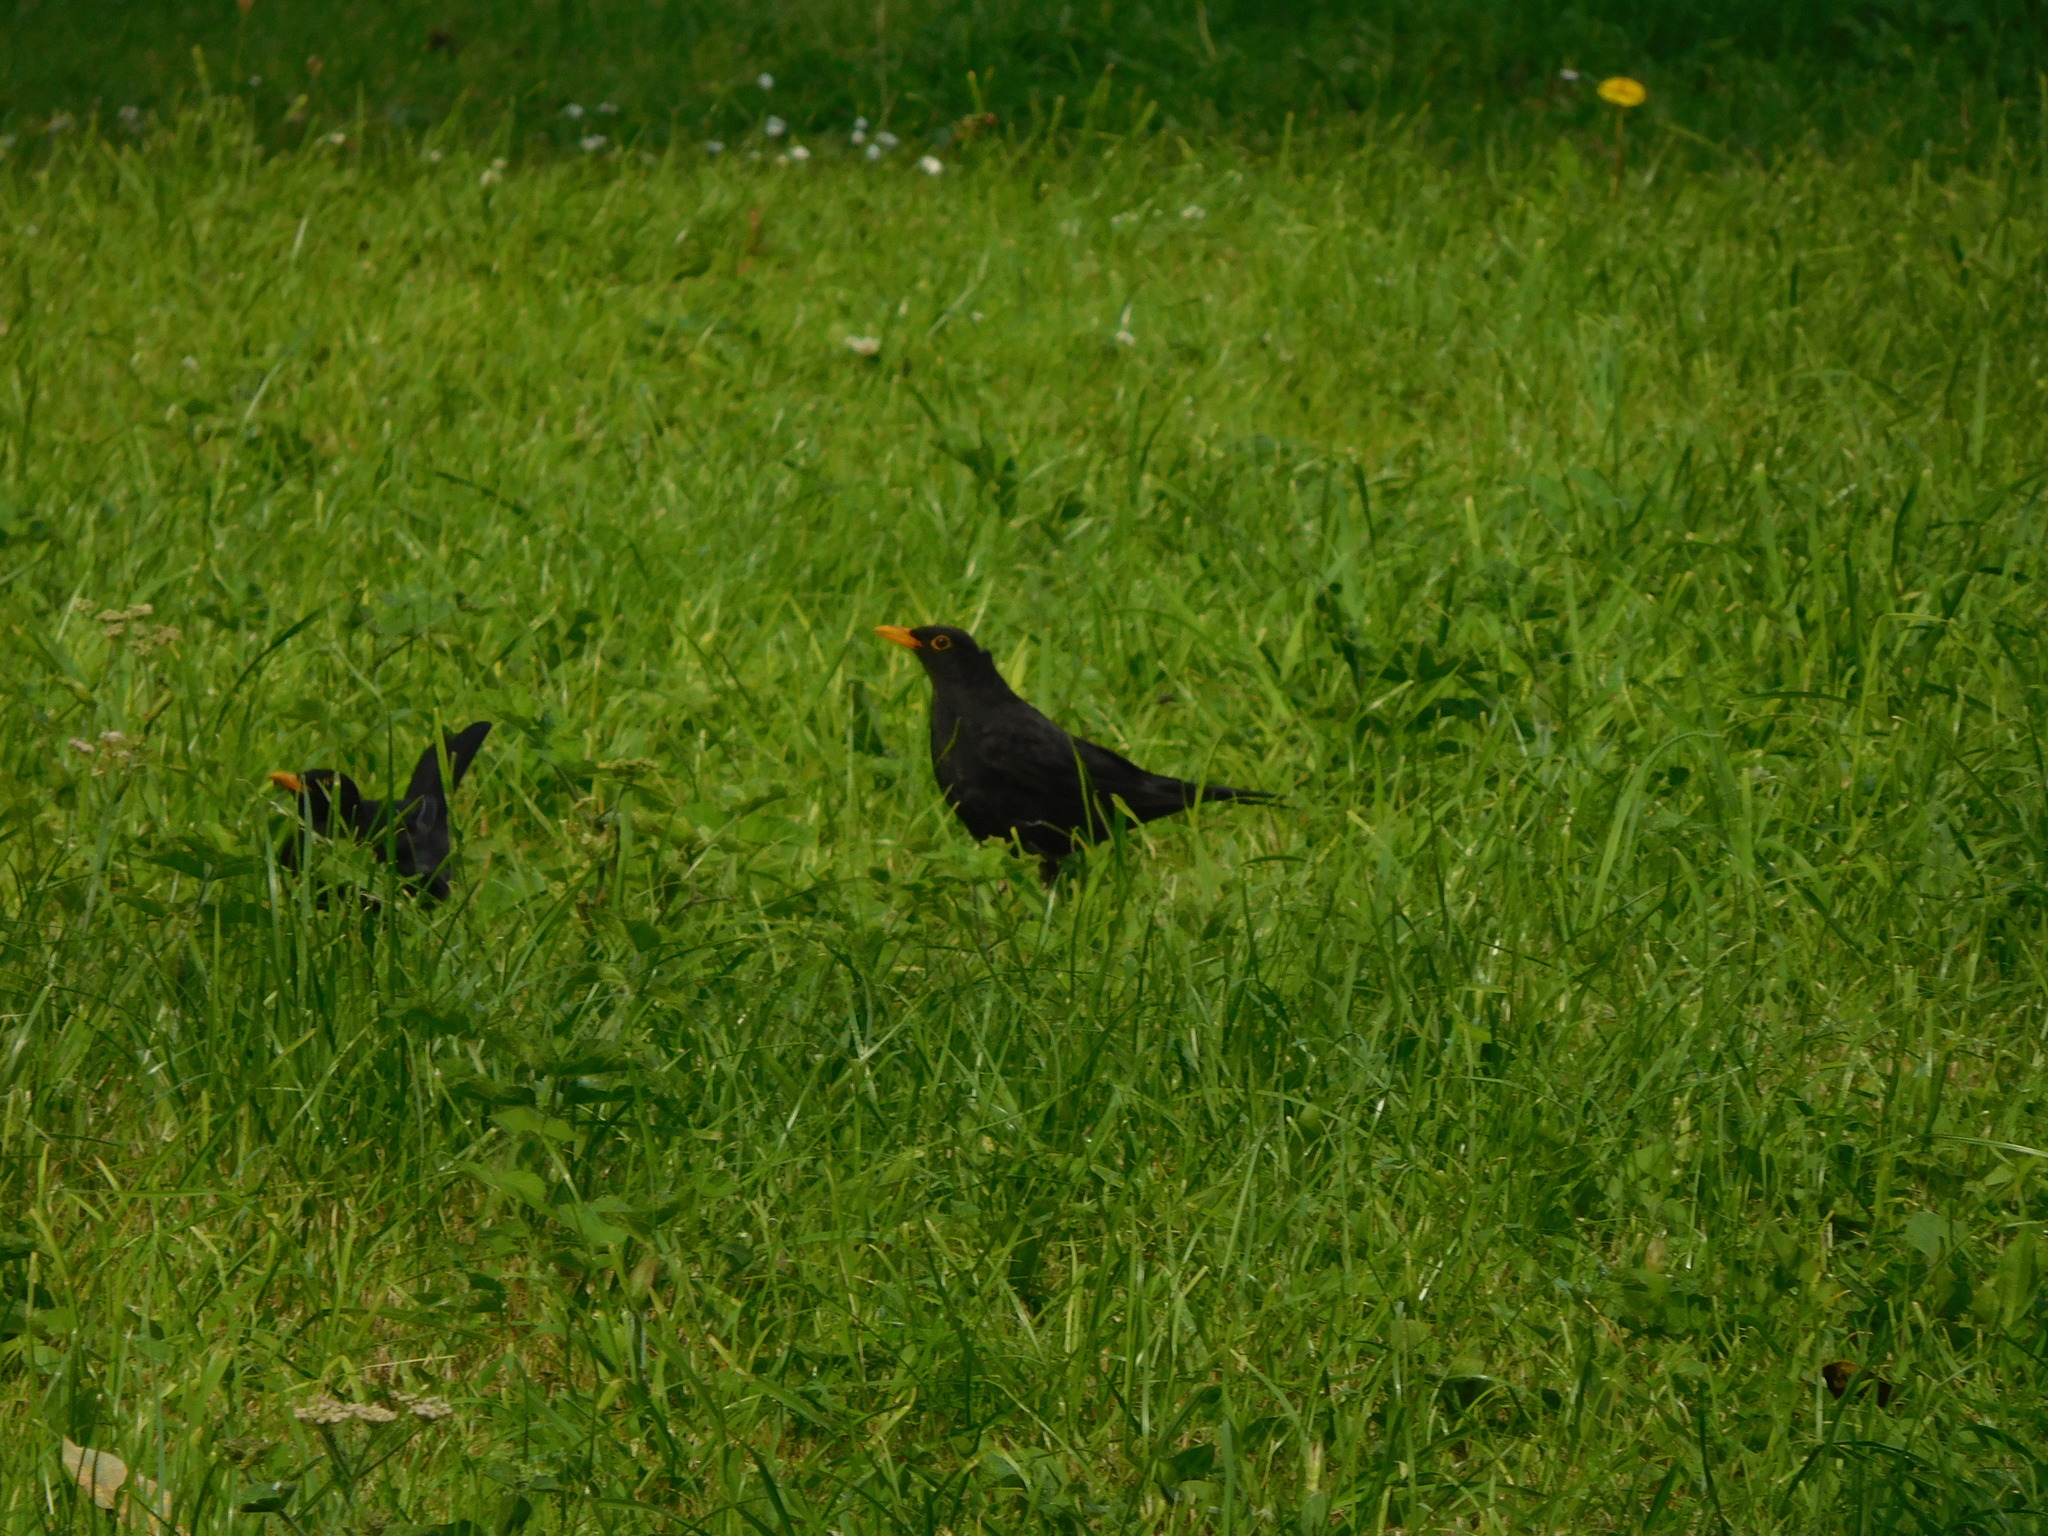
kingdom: Animalia
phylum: Chordata
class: Aves
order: Passeriformes
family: Turdidae
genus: Turdus
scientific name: Turdus merula
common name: Common blackbird
